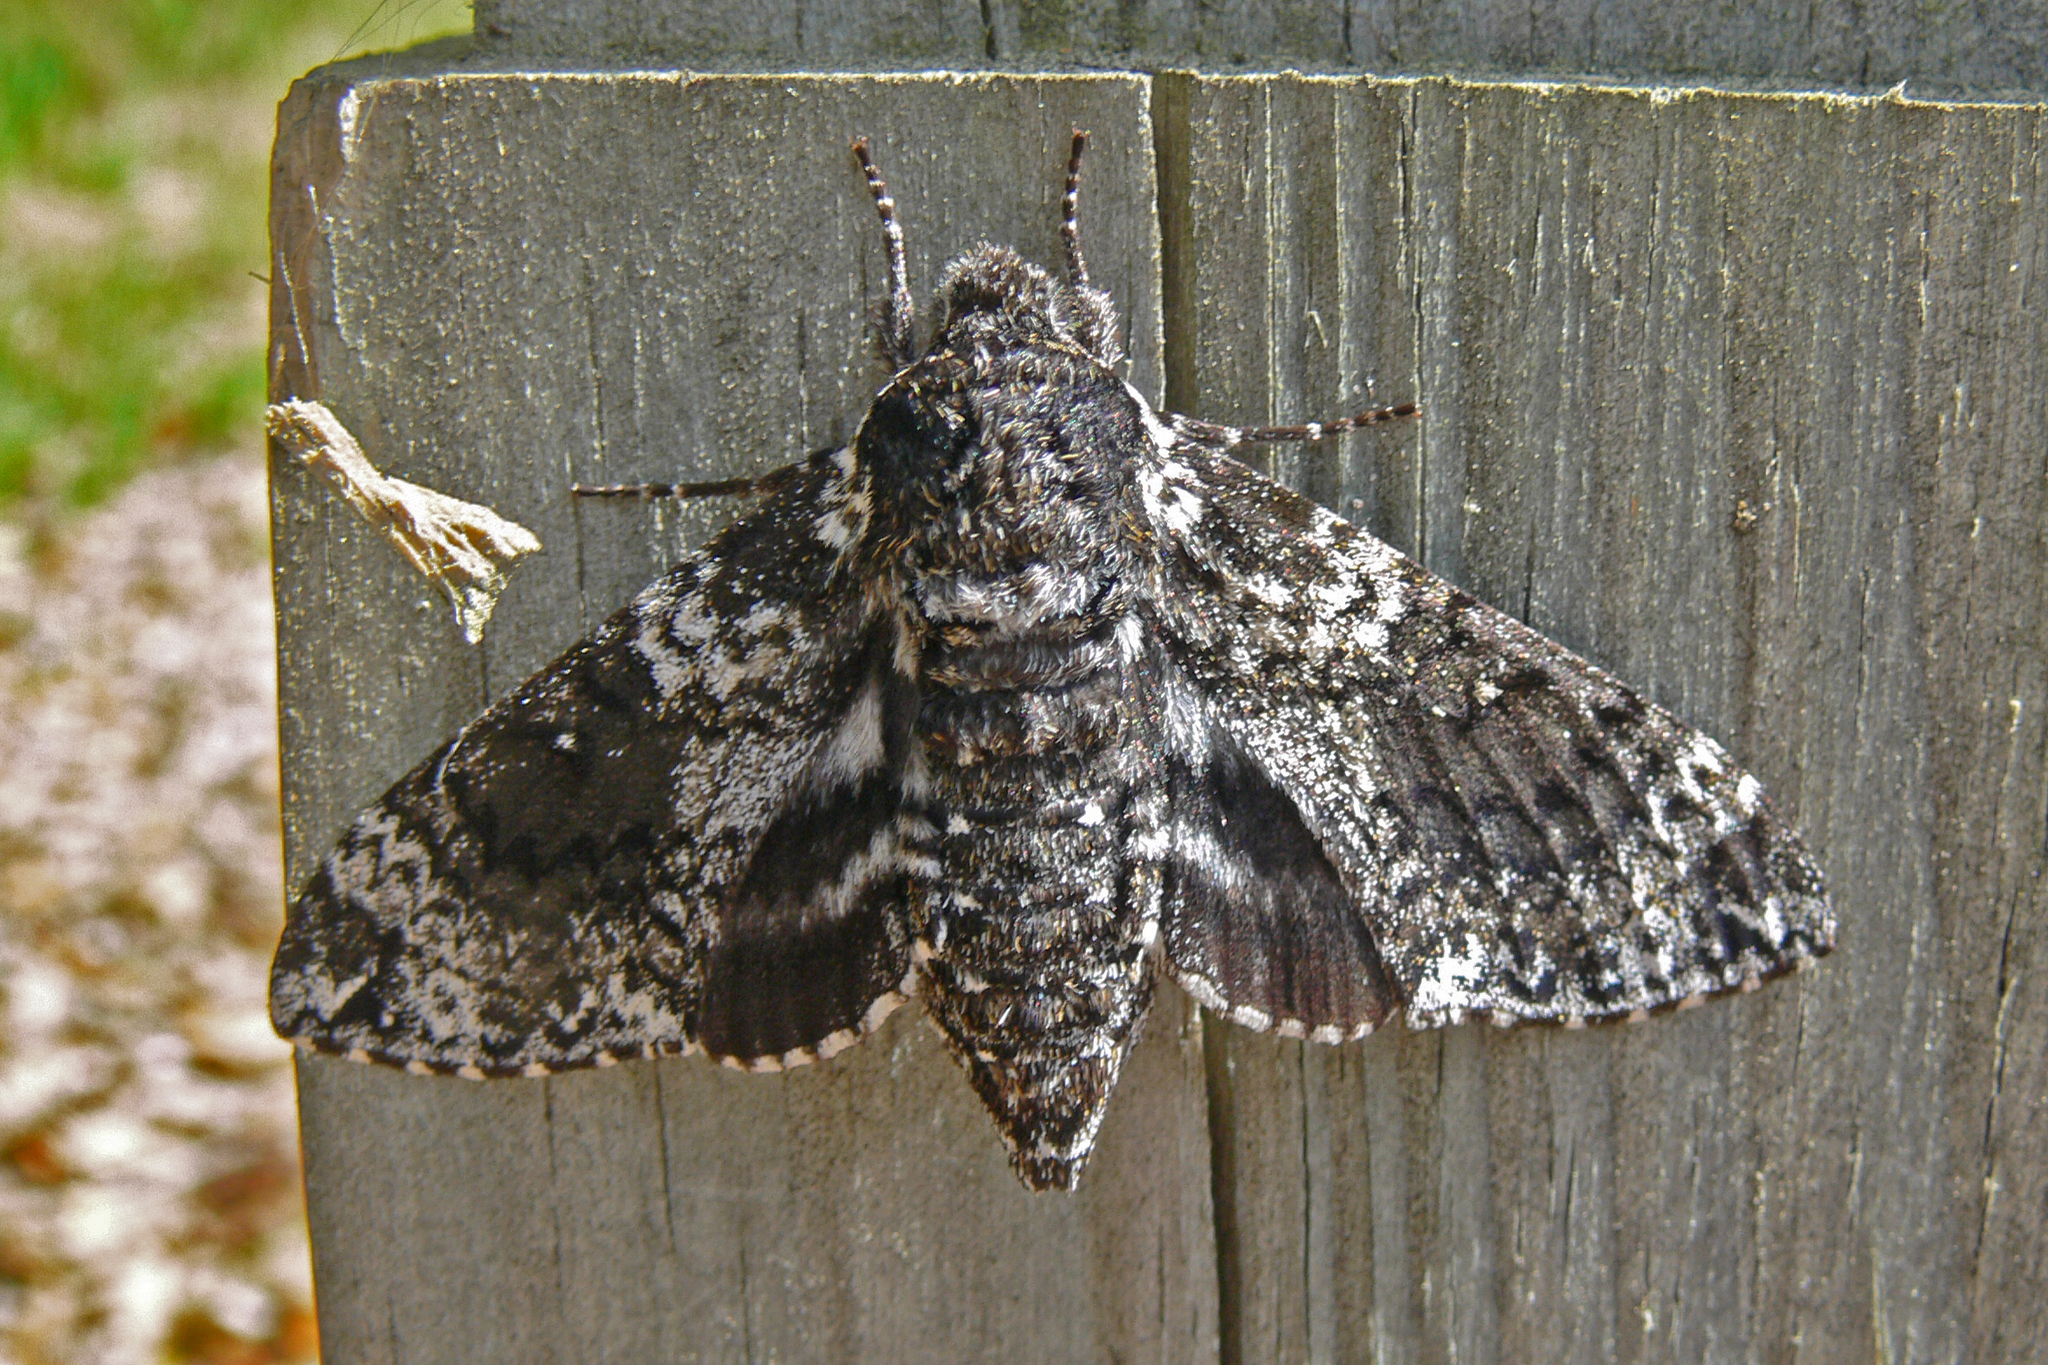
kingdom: Animalia
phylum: Arthropoda
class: Insecta
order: Lepidoptera
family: Sphingidae
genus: Dolba
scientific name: Dolba hyloeus
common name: Pawpaw sphinx
